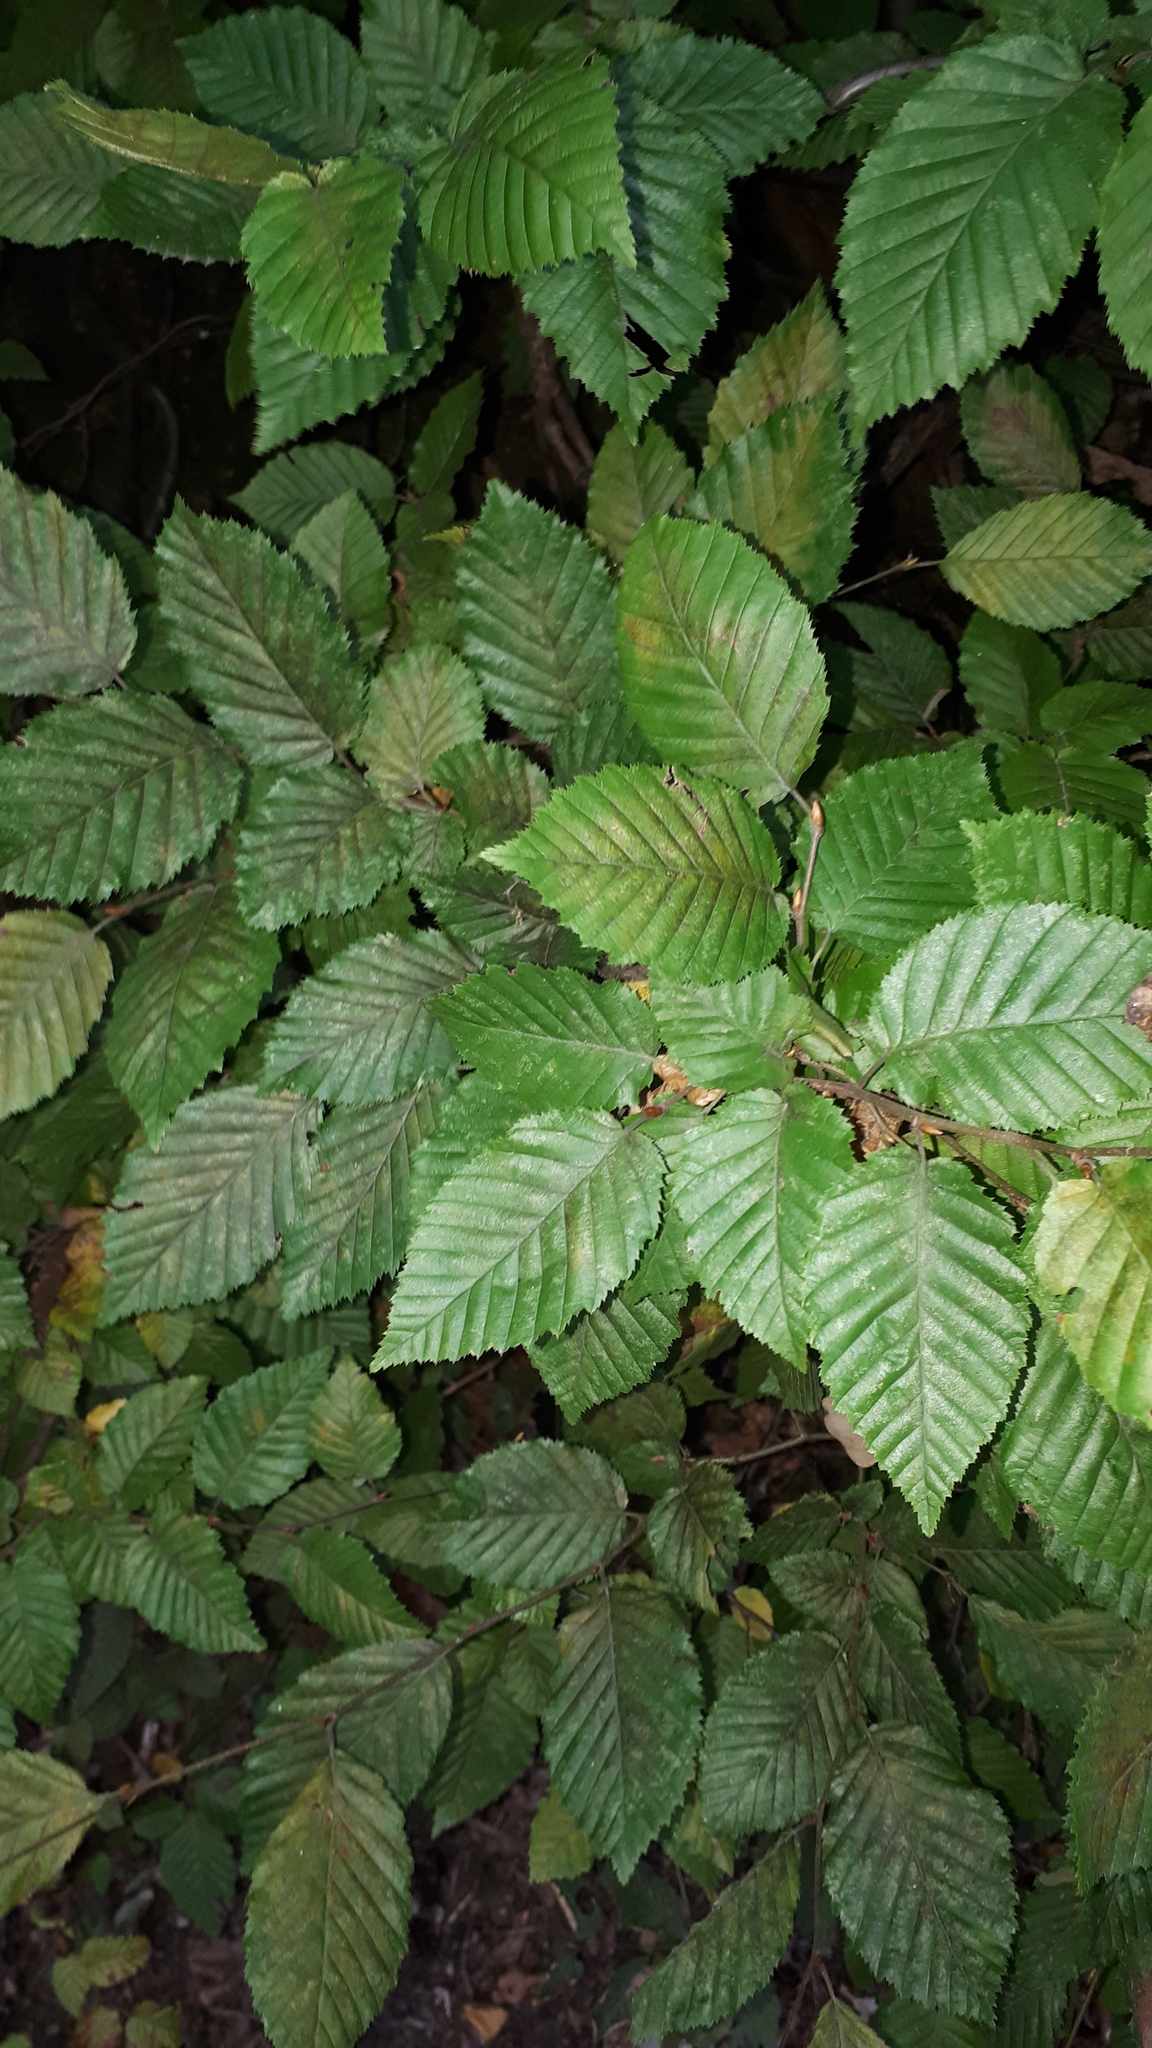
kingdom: Plantae
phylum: Tracheophyta
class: Magnoliopsida
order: Fagales
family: Betulaceae
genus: Carpinus
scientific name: Carpinus betulus
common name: Hornbeam
